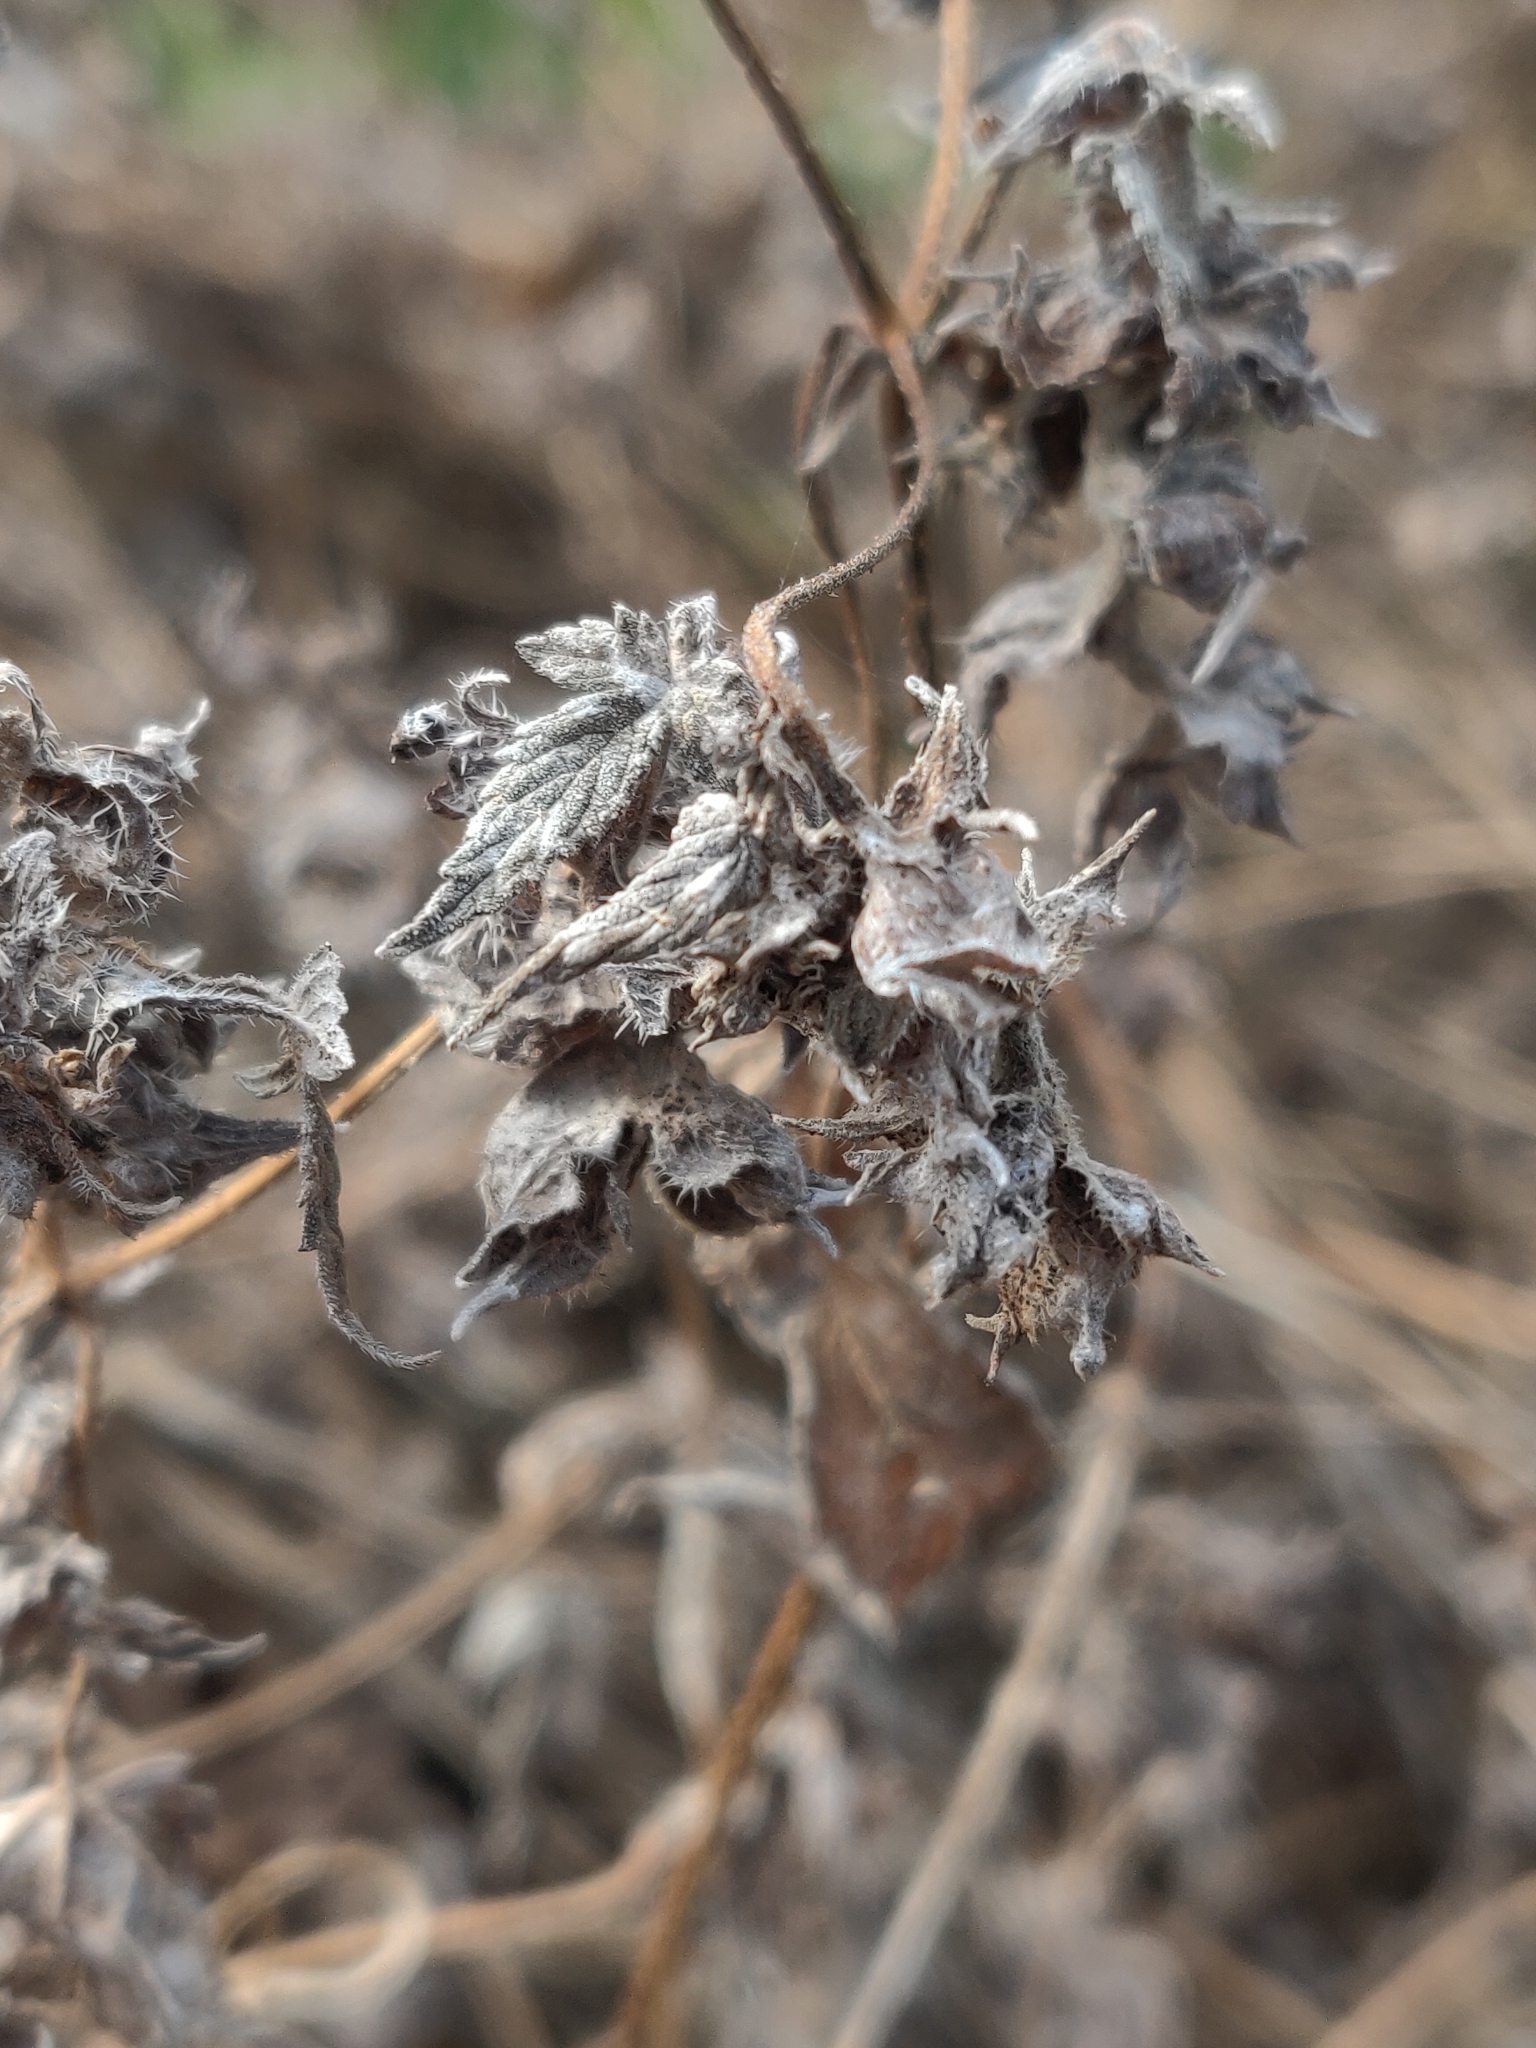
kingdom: Plantae
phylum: Tracheophyta
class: Magnoliopsida
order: Rosales
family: Cannabaceae
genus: Humulus
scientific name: Humulus scandens
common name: Japanese hop
